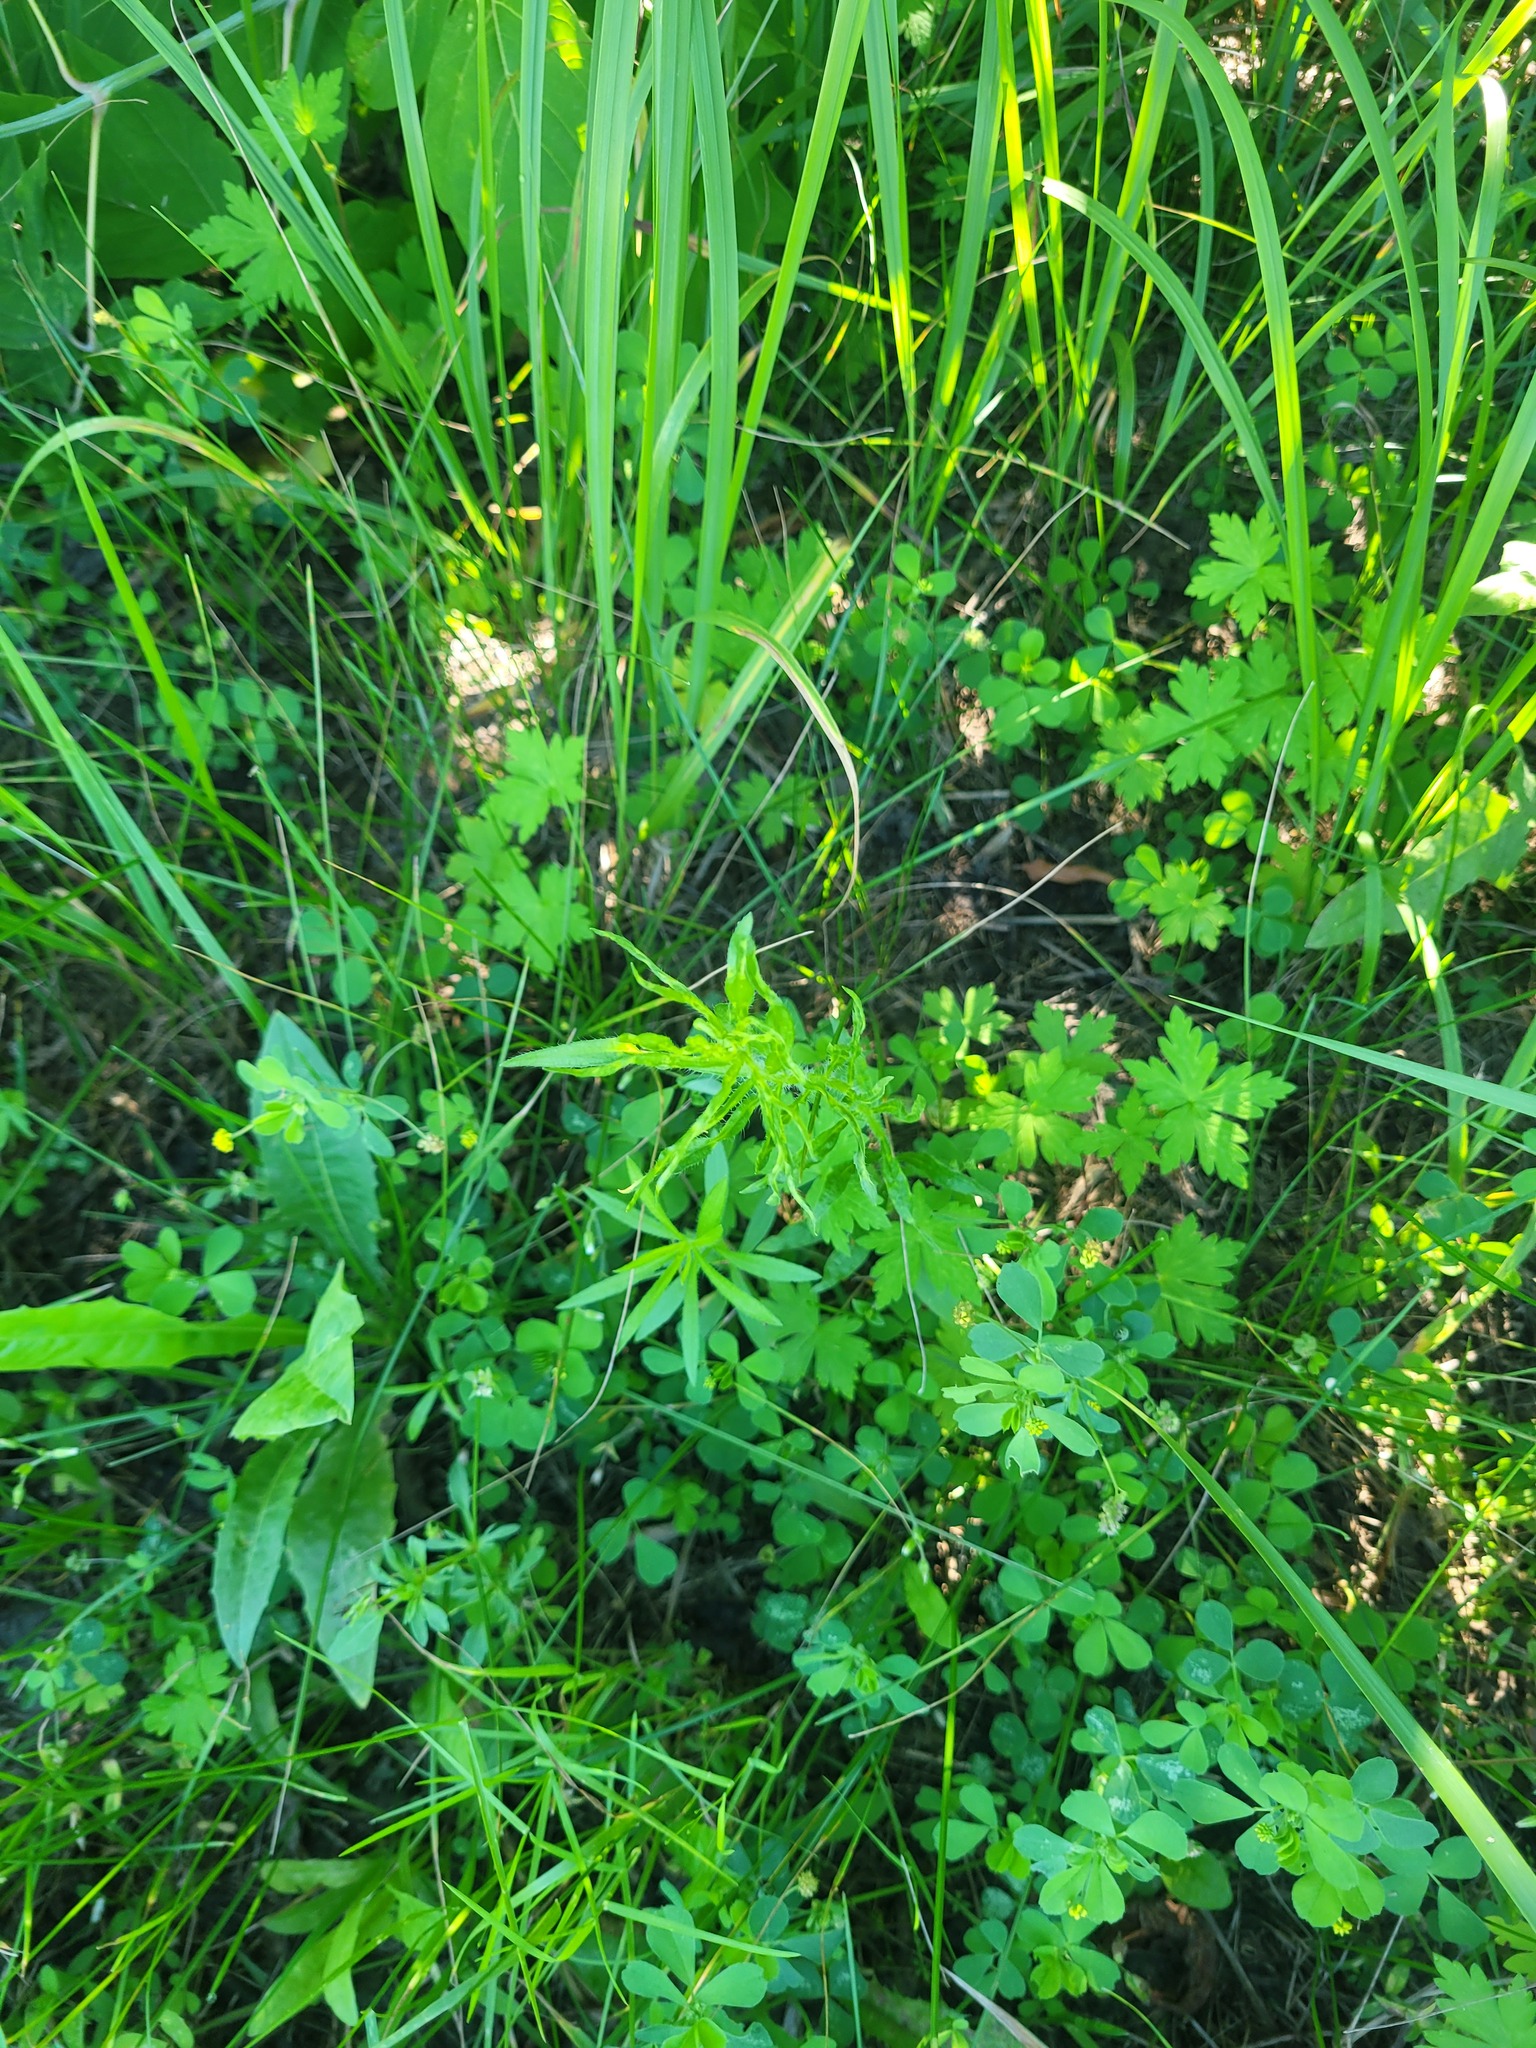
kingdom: Plantae
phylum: Tracheophyta
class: Magnoliopsida
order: Asterales
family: Asteraceae
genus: Erigeron
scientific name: Erigeron canadensis
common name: Canadian fleabane
